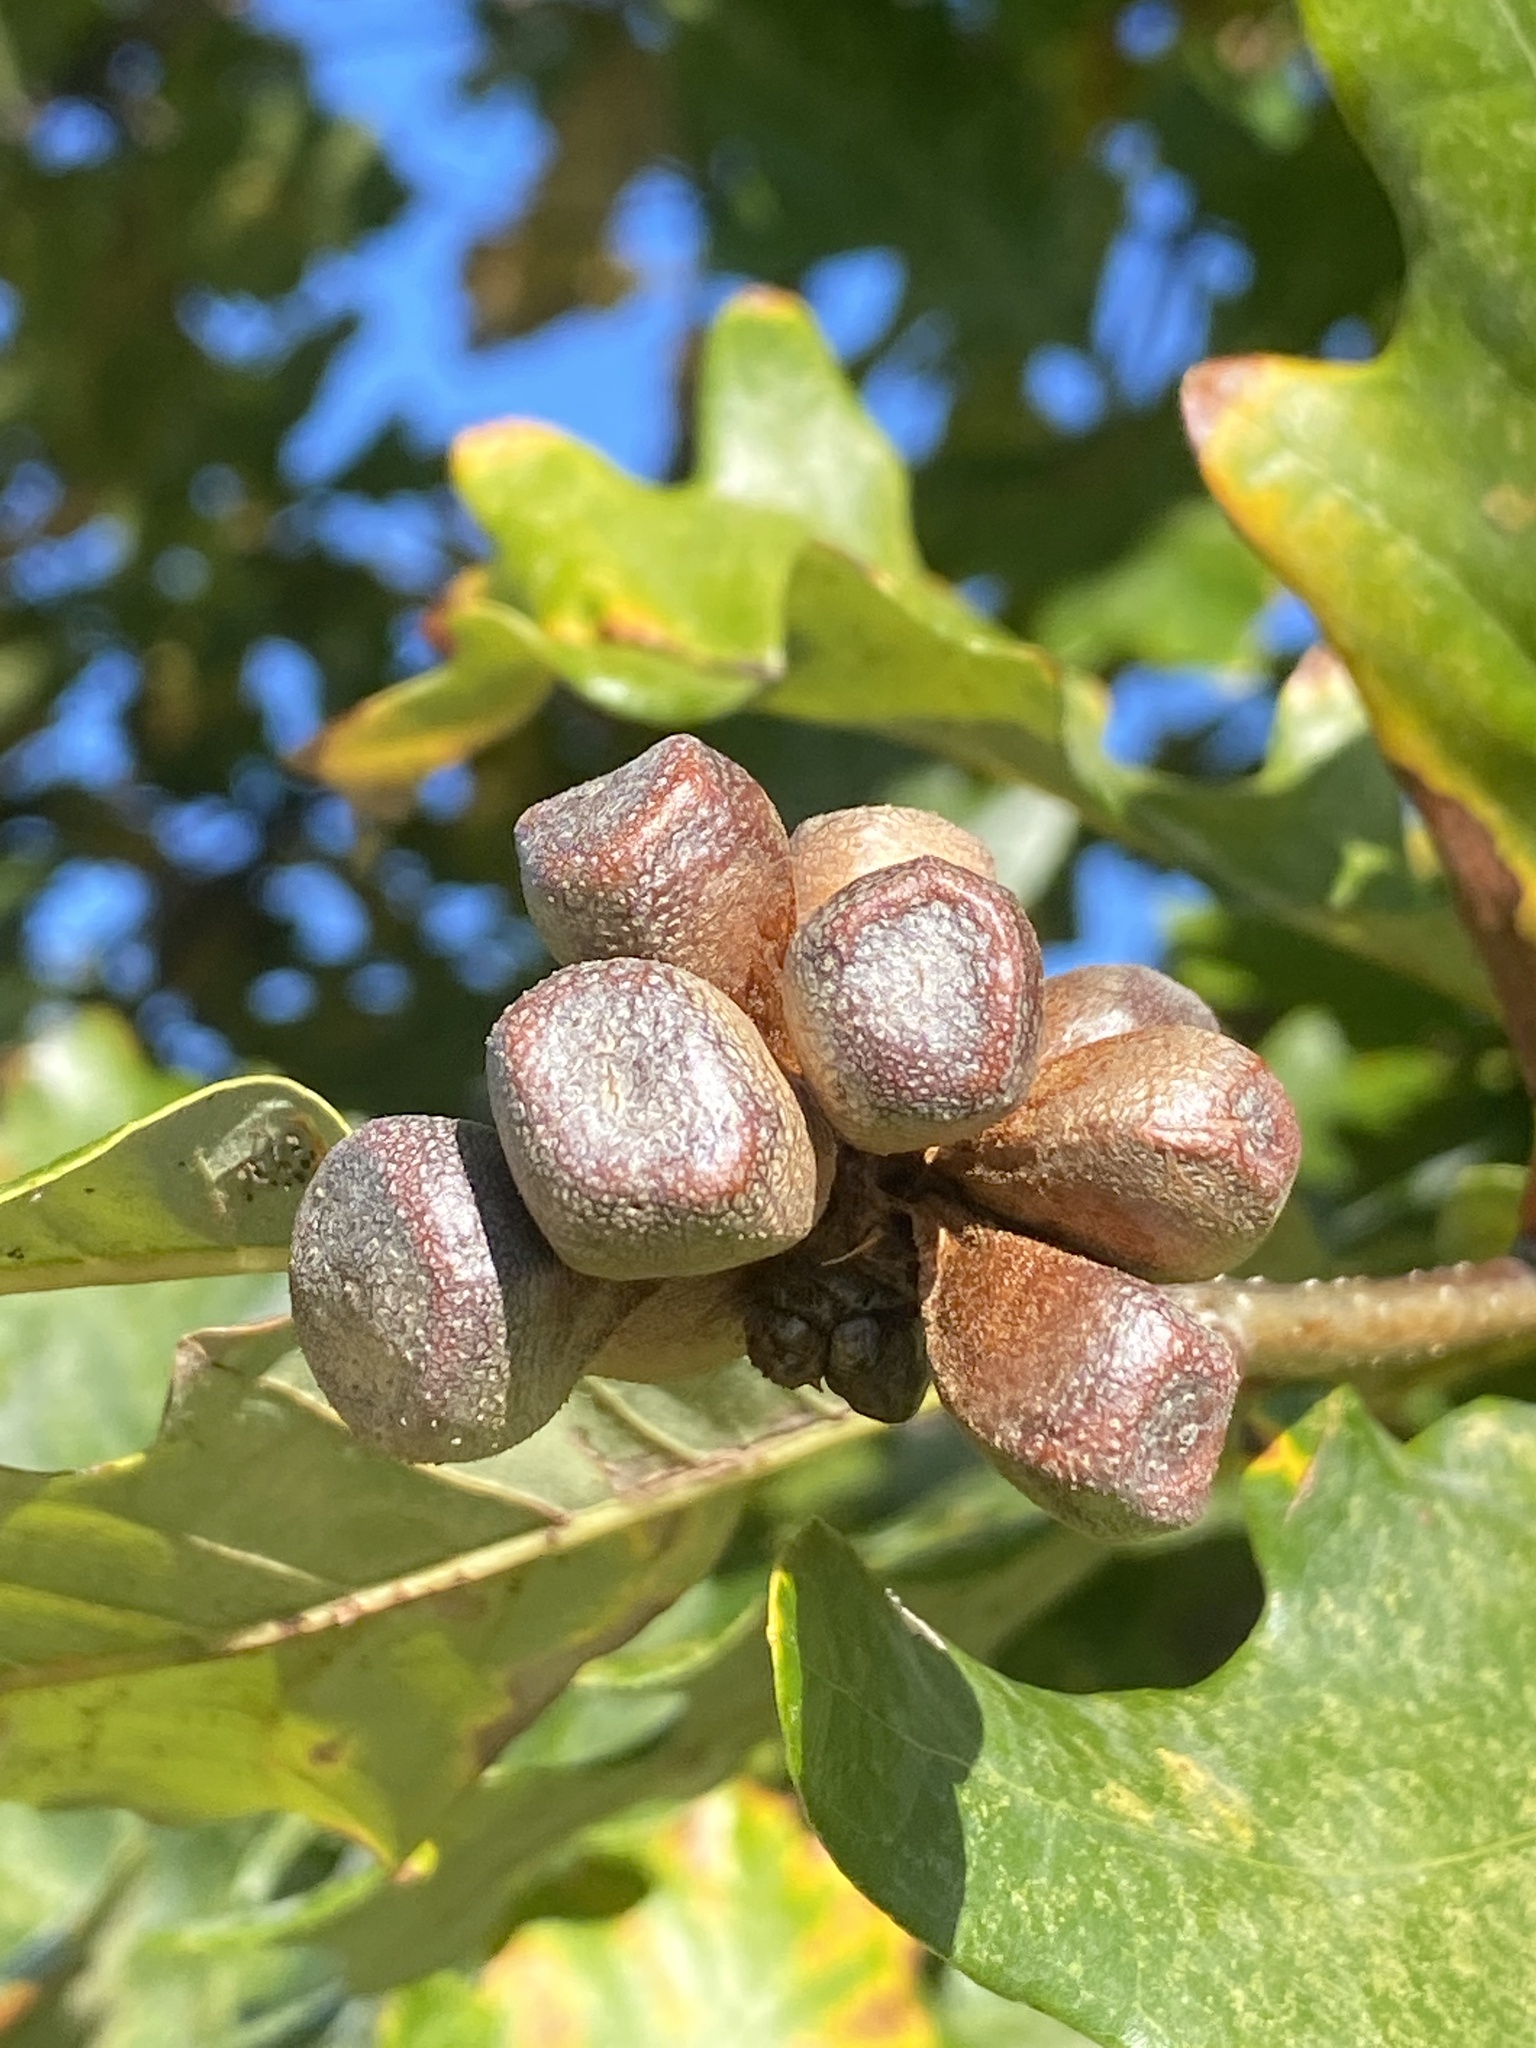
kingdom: Animalia
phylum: Arthropoda
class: Insecta
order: Hymenoptera
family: Cynipidae
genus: Andricus
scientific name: Andricus
